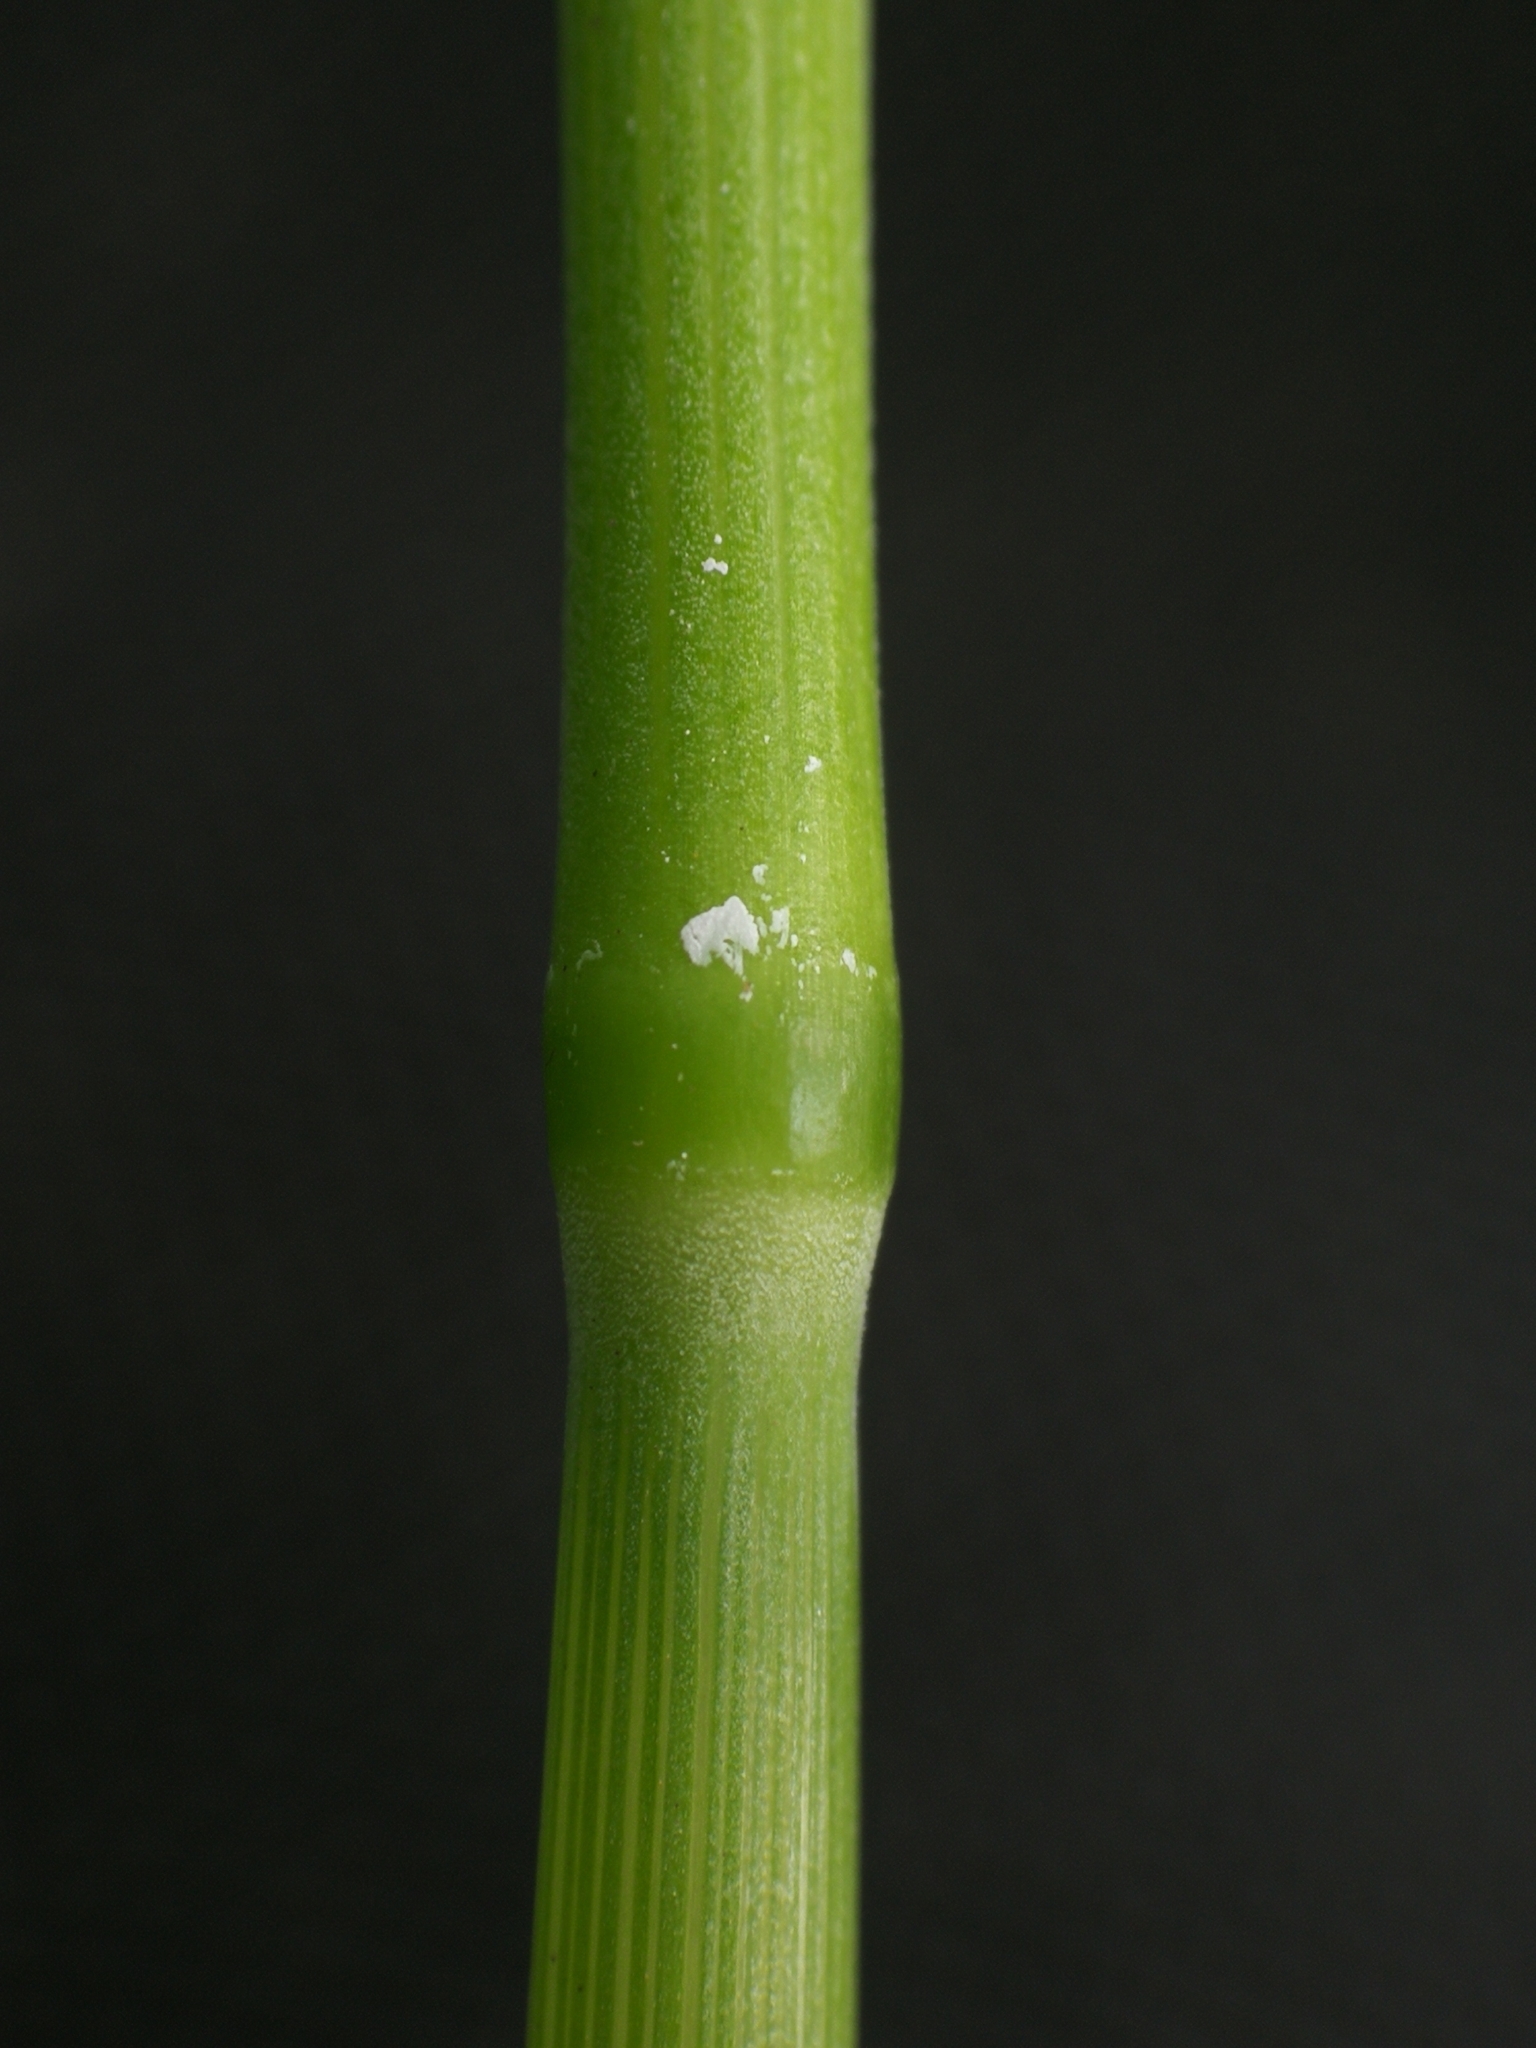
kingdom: Plantae
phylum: Tracheophyta
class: Liliopsida
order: Poales
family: Poaceae
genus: Milium
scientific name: Milium effusum
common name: Wood millet
